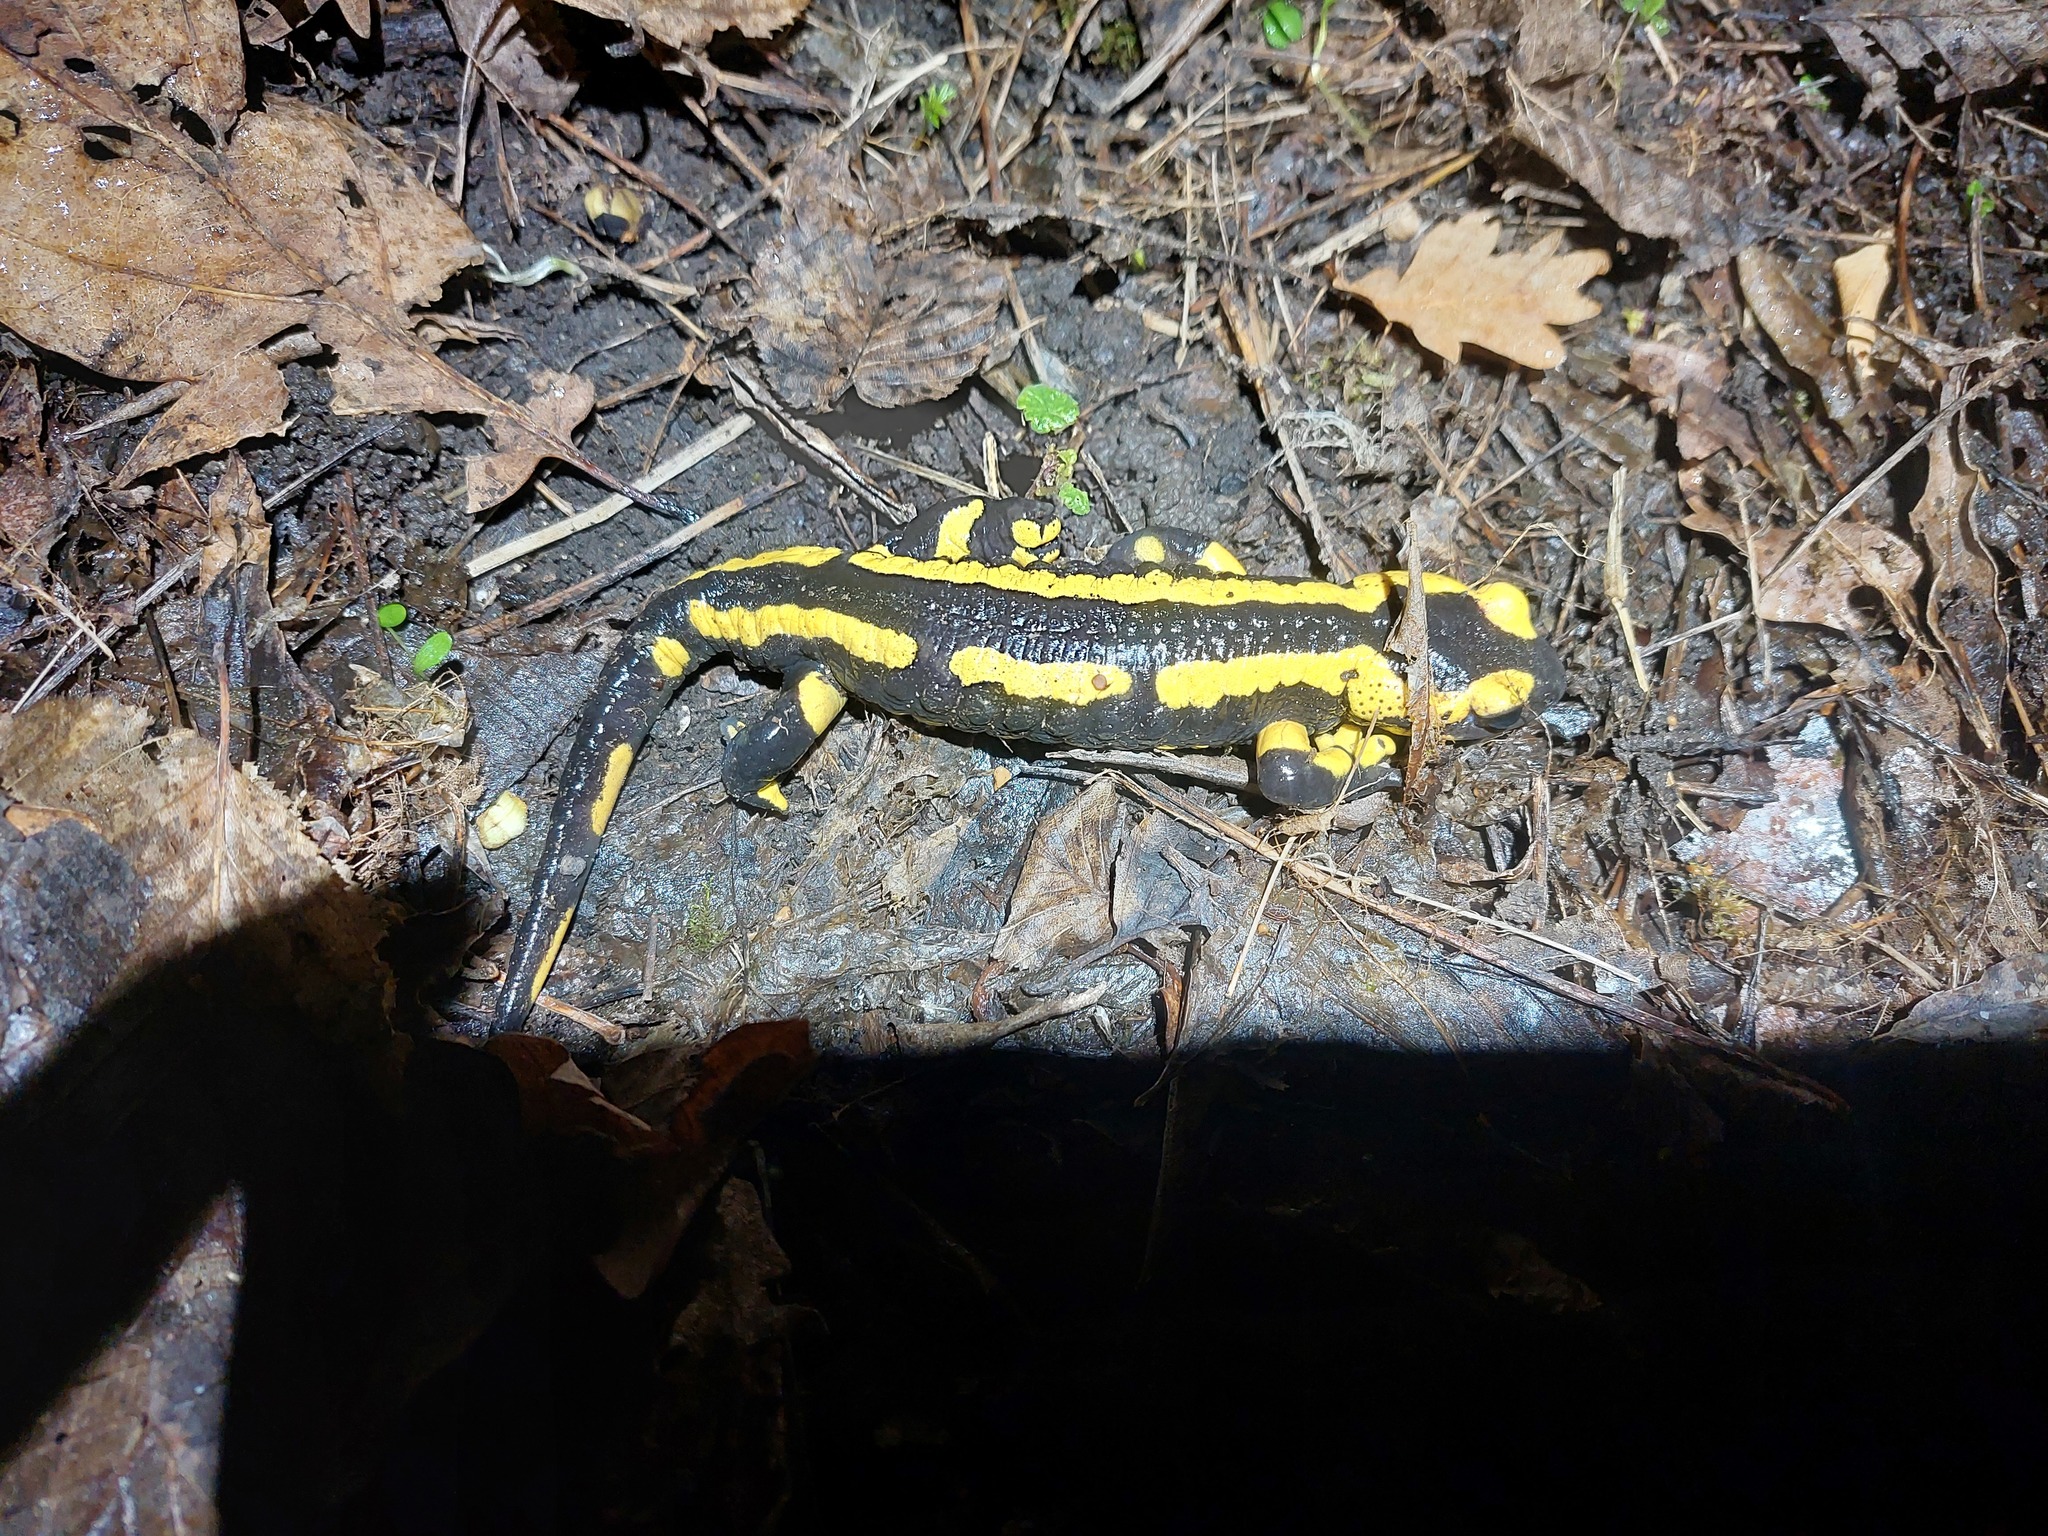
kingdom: Animalia
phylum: Chordata
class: Amphibia
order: Caudata
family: Salamandridae
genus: Salamandra
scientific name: Salamandra salamandra
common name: Fire salamander
